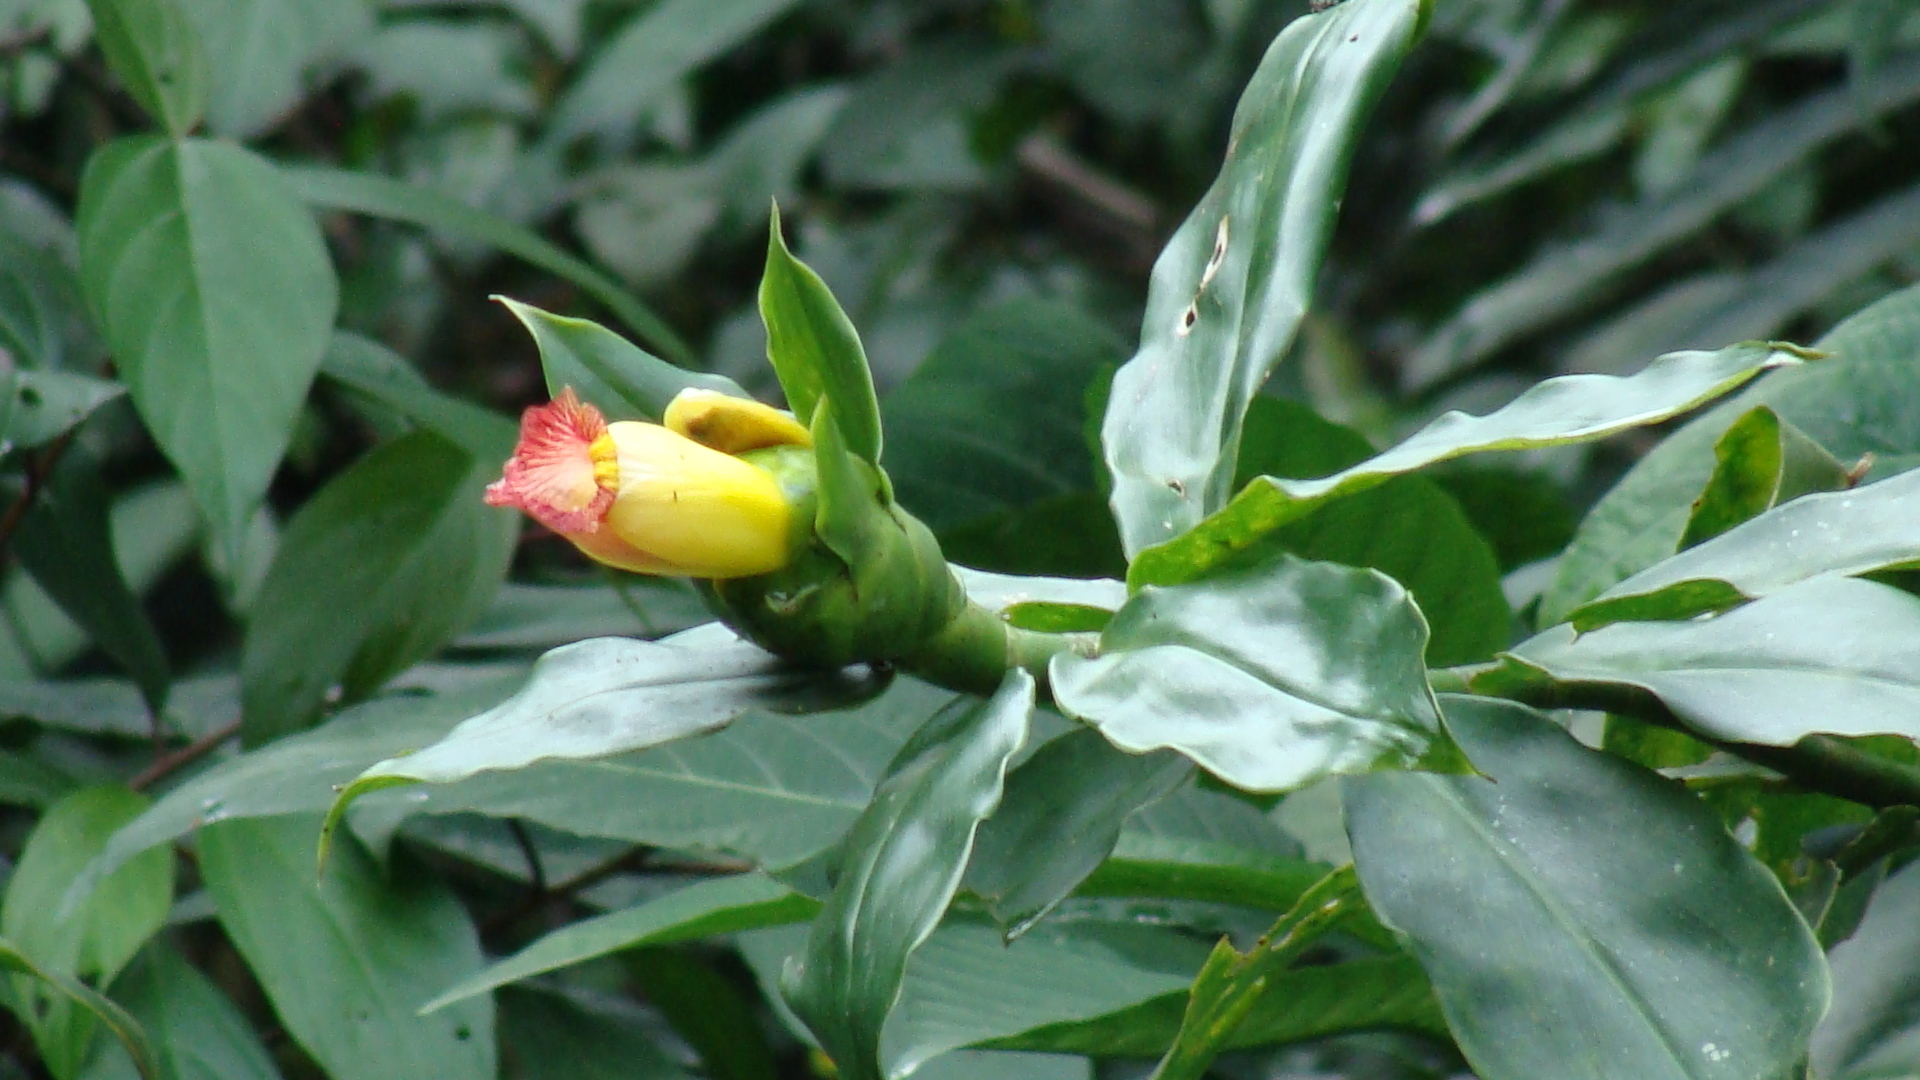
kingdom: Plantae
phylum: Tracheophyta
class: Liliopsida
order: Zingiberales
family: Costaceae
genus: Costus
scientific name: Costus pictus
